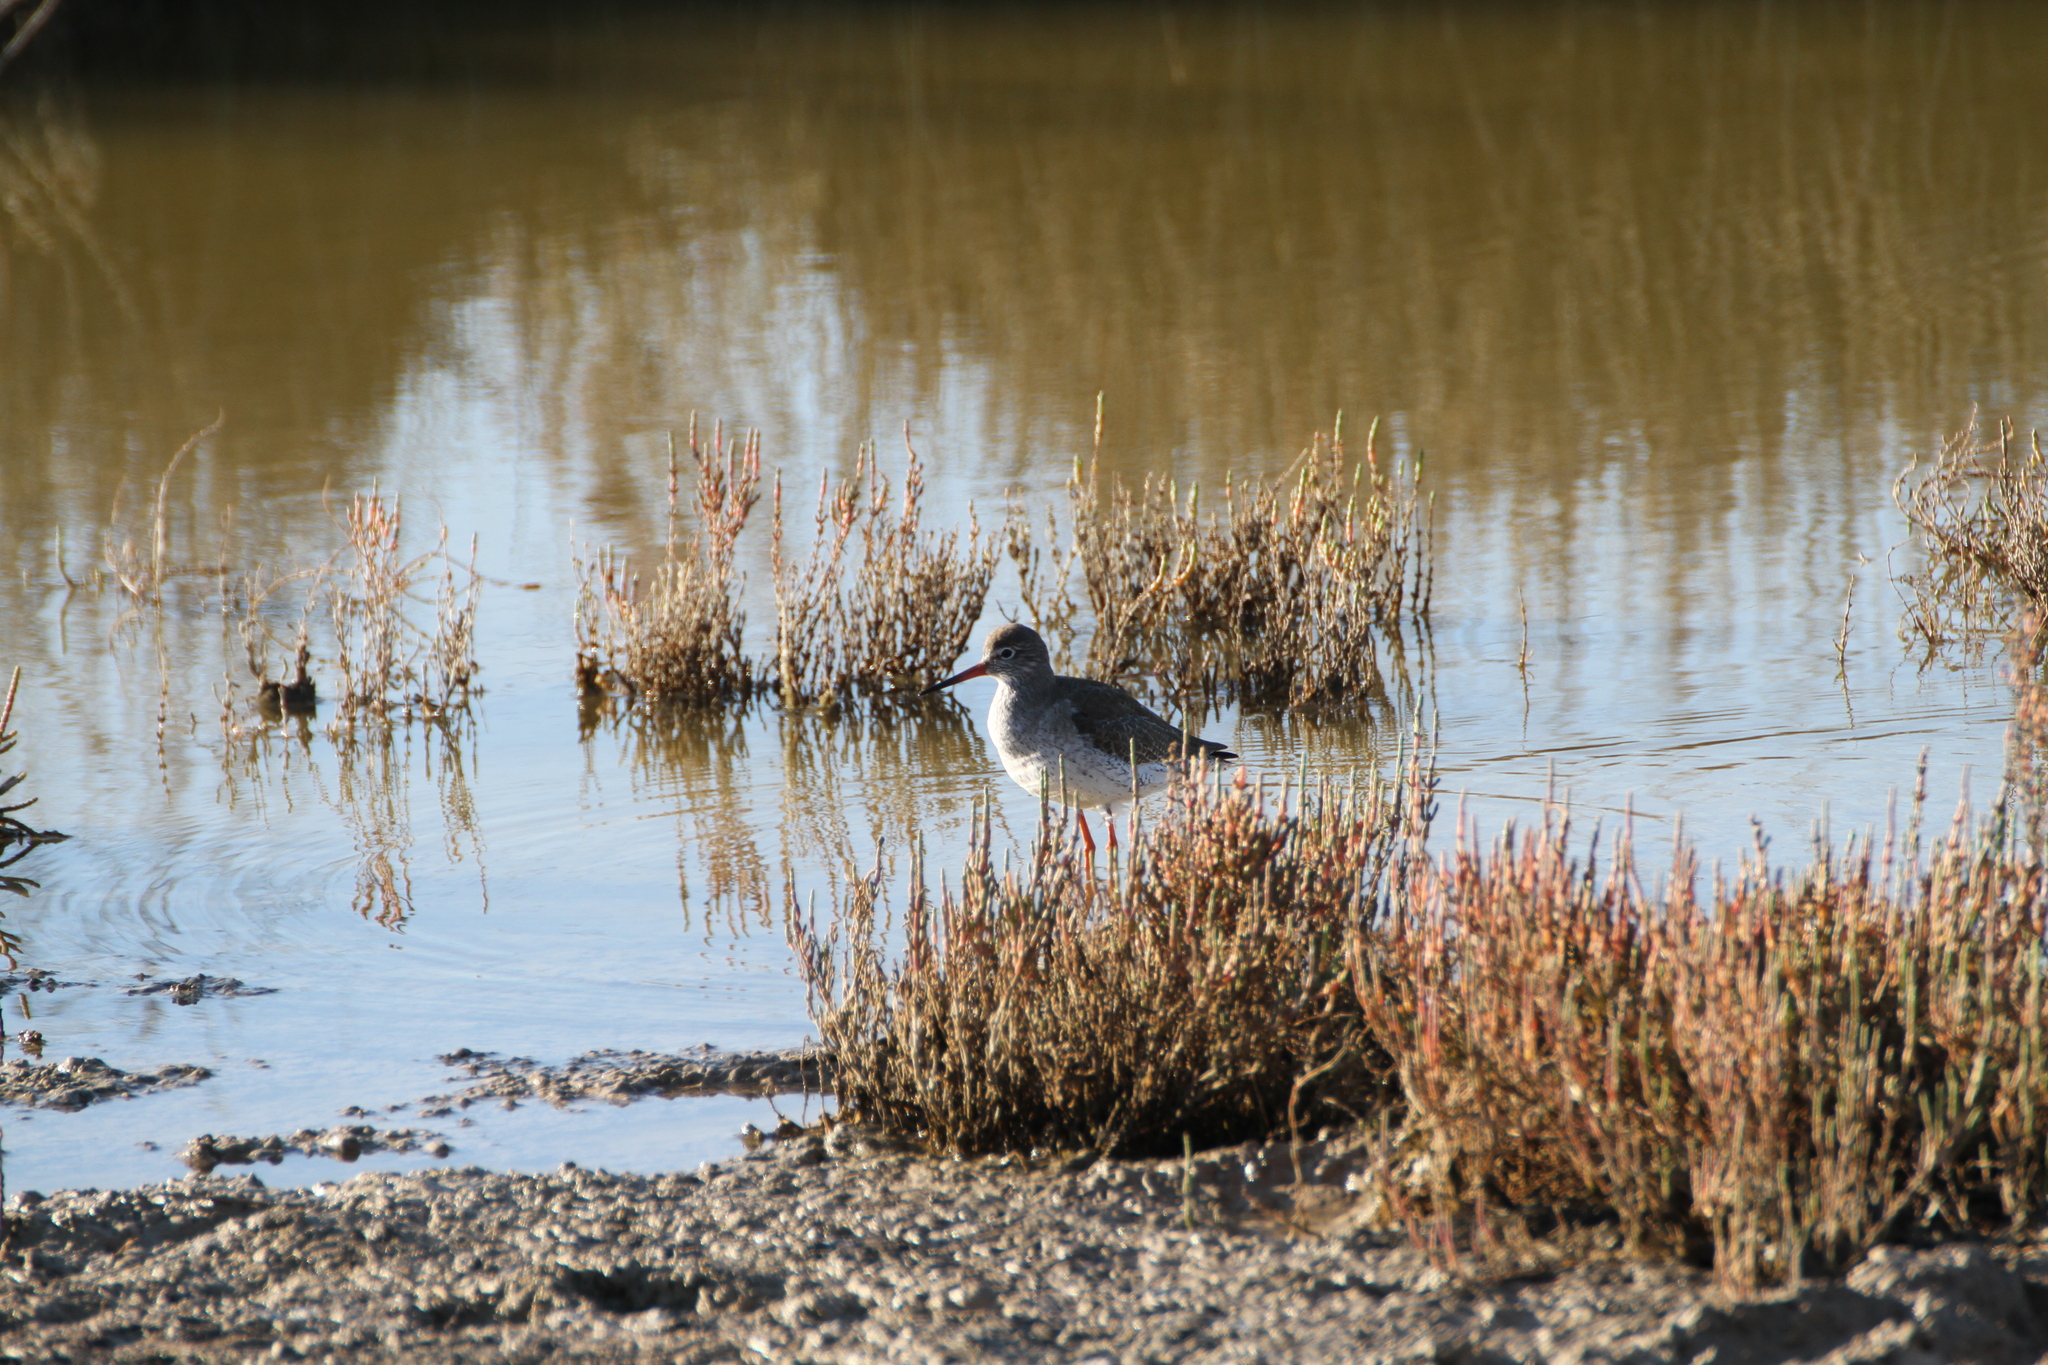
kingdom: Animalia
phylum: Chordata
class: Aves
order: Charadriiformes
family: Scolopacidae
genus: Tringa
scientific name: Tringa totanus
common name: Common redshank
